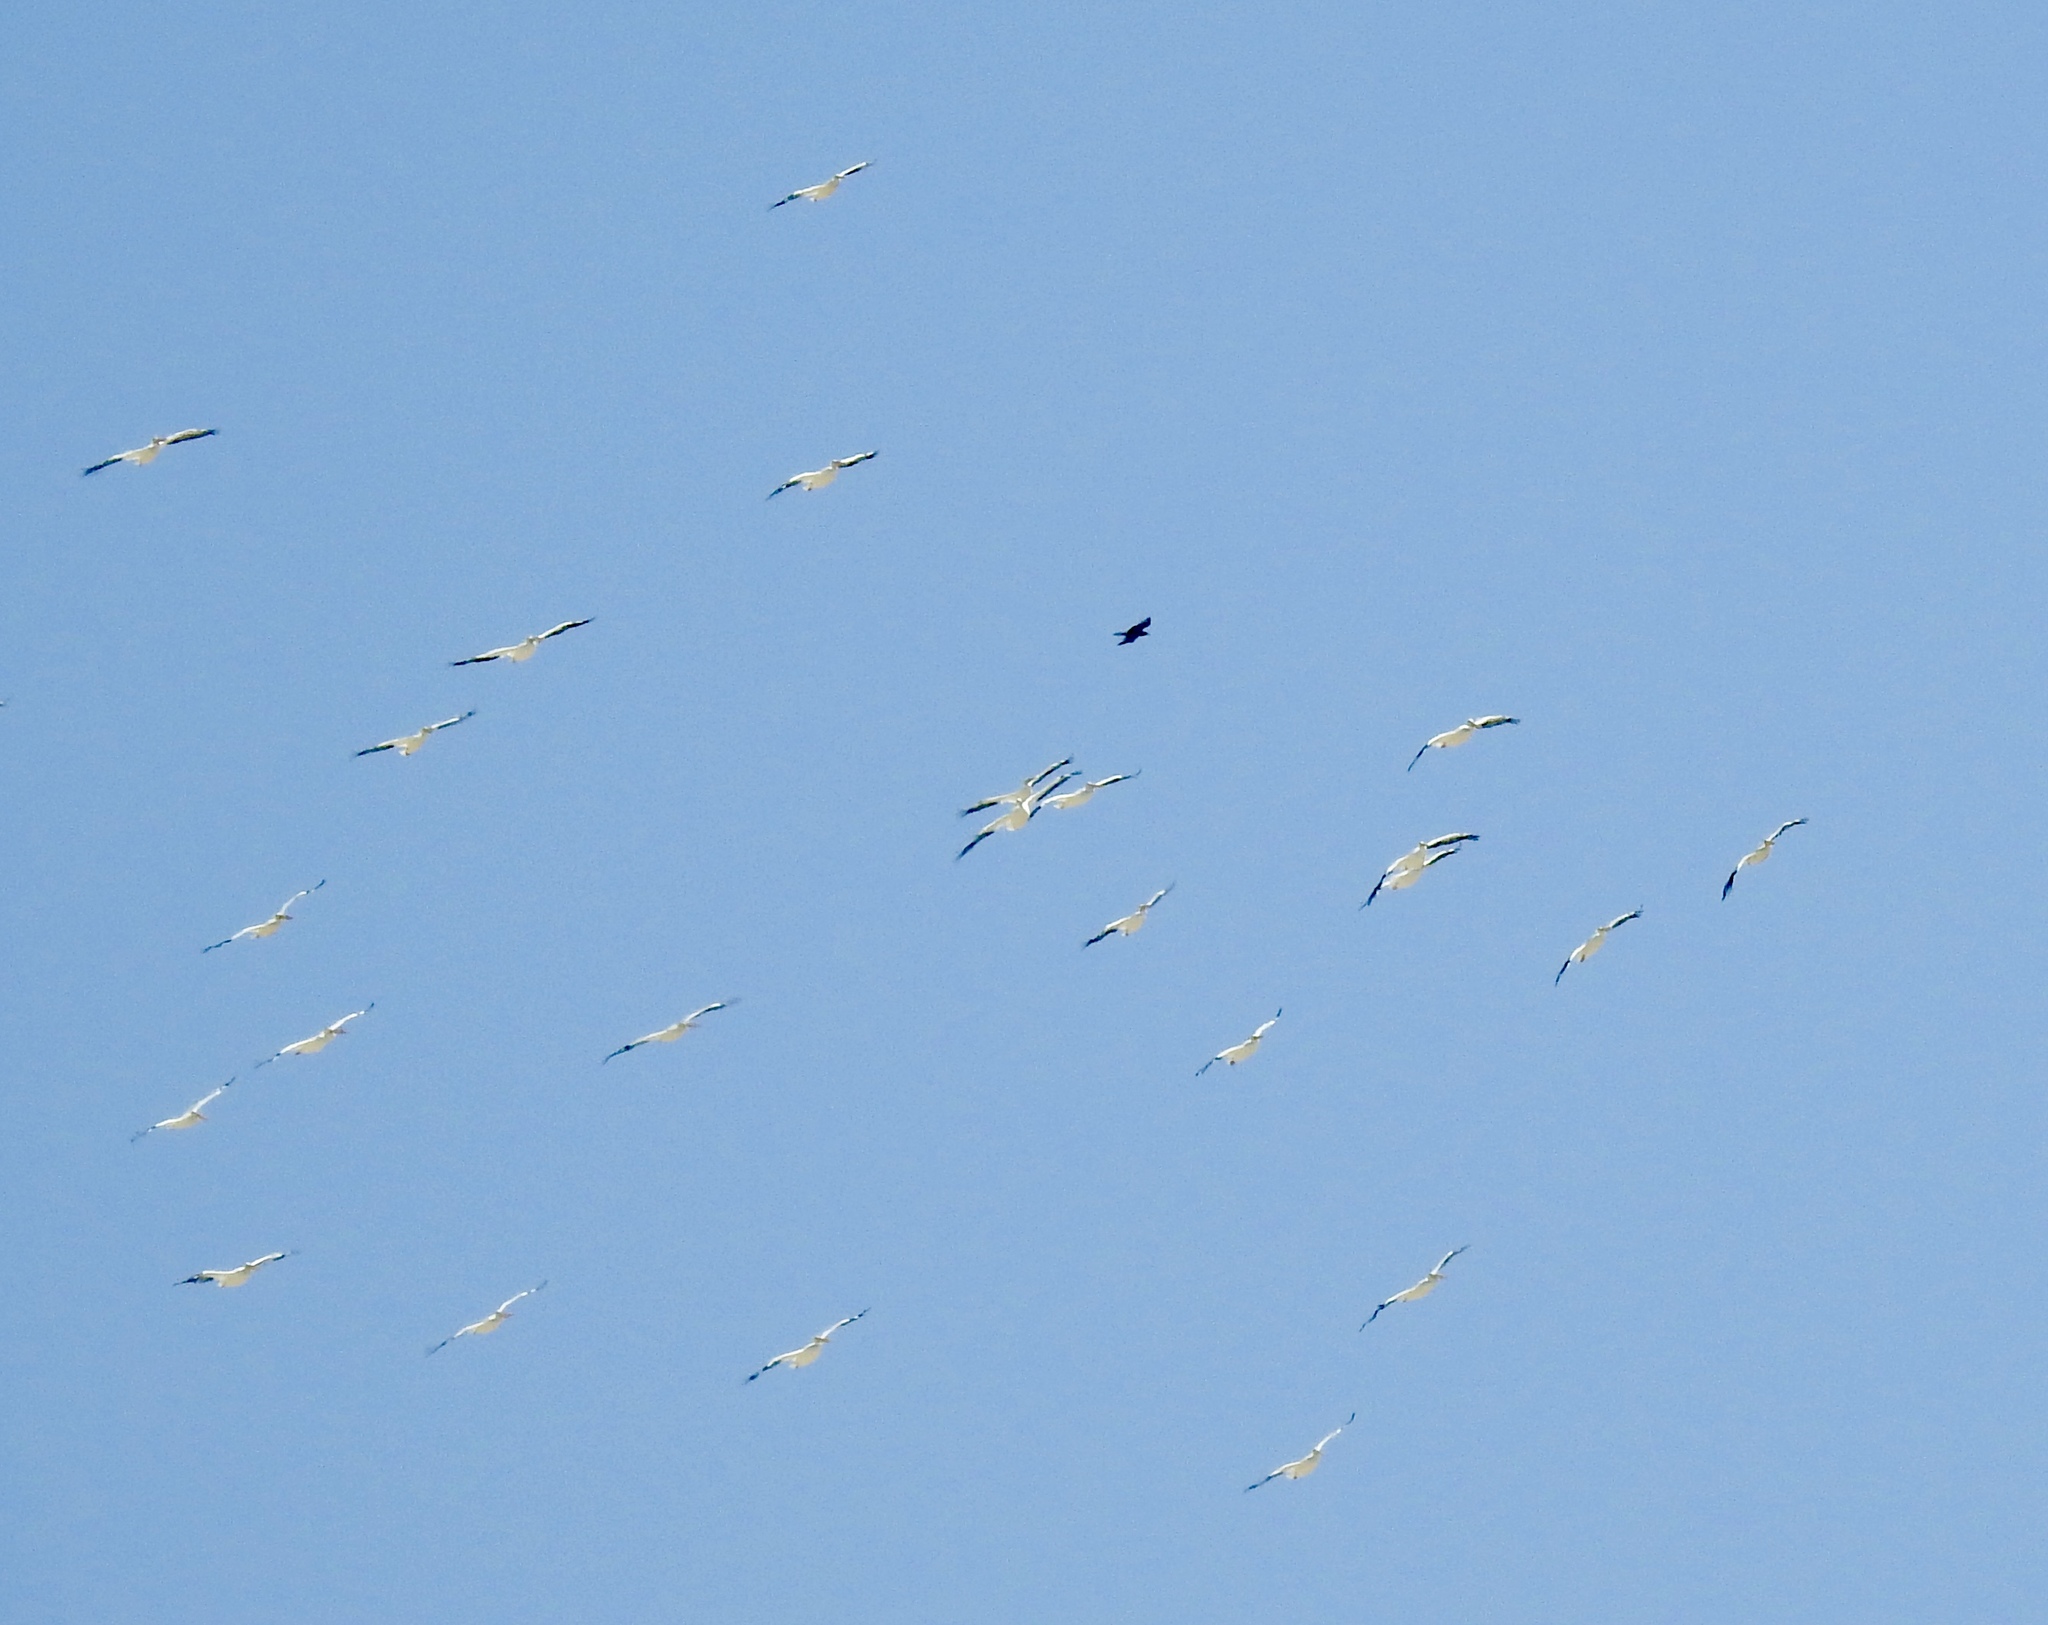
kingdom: Animalia
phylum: Chordata
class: Aves
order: Pelecaniformes
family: Pelecanidae
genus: Pelecanus
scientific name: Pelecanus erythrorhynchos
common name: American white pelican
